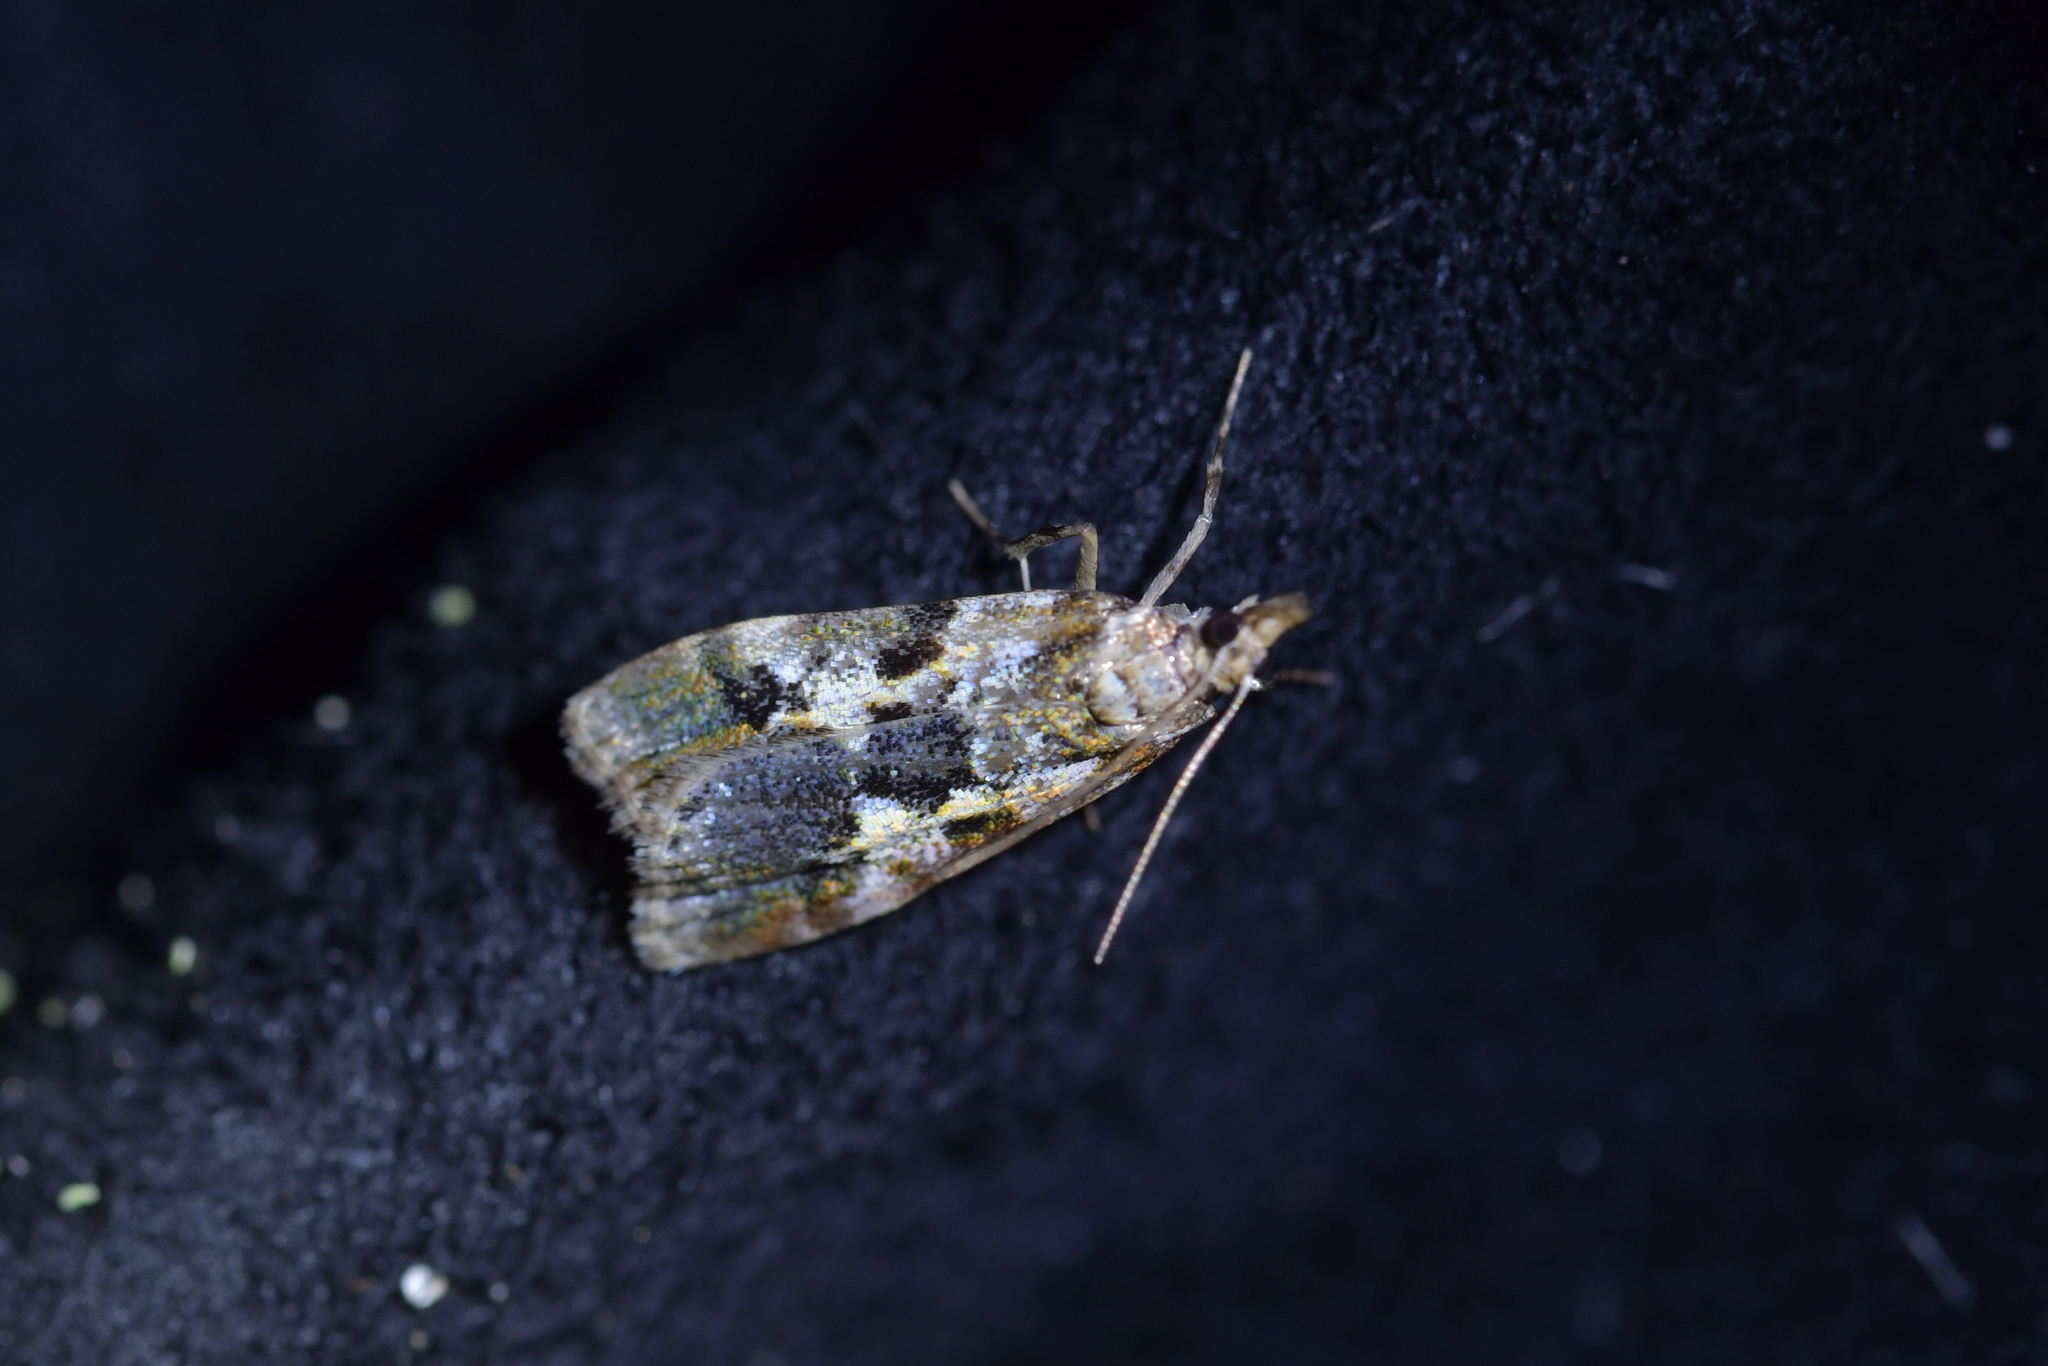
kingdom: Animalia
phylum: Arthropoda
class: Insecta
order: Lepidoptera
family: Crambidae
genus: Eudonia
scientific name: Eudonia characta
